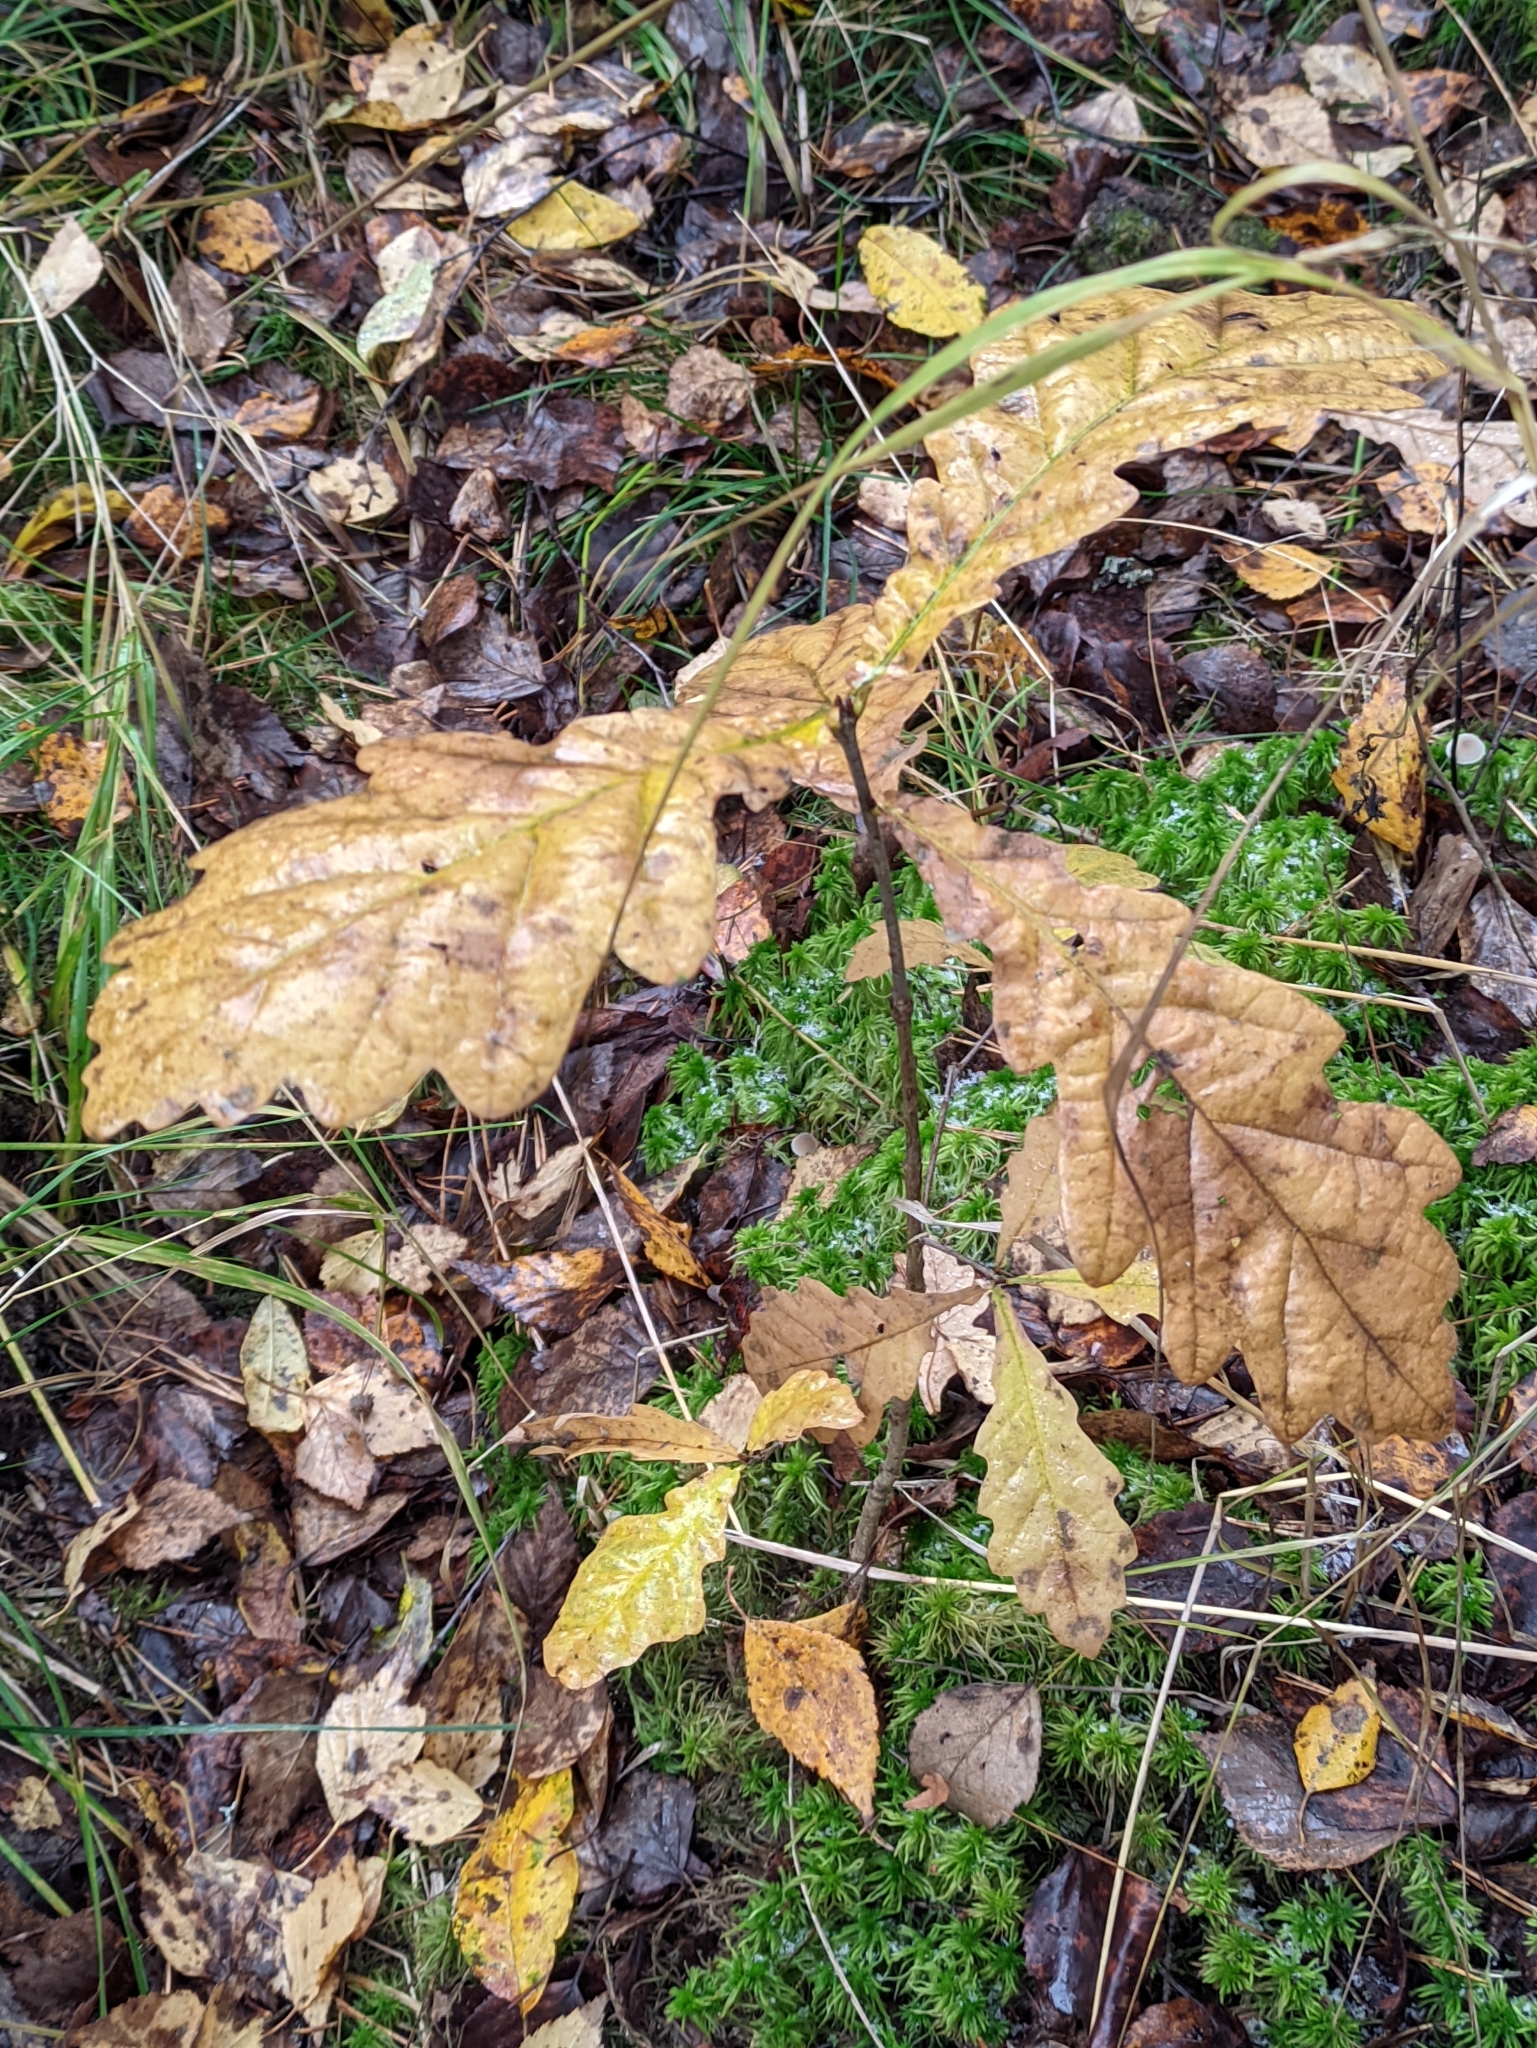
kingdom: Plantae
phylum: Tracheophyta
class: Magnoliopsida
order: Fagales
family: Fagaceae
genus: Quercus
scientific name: Quercus robur
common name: Pedunculate oak
